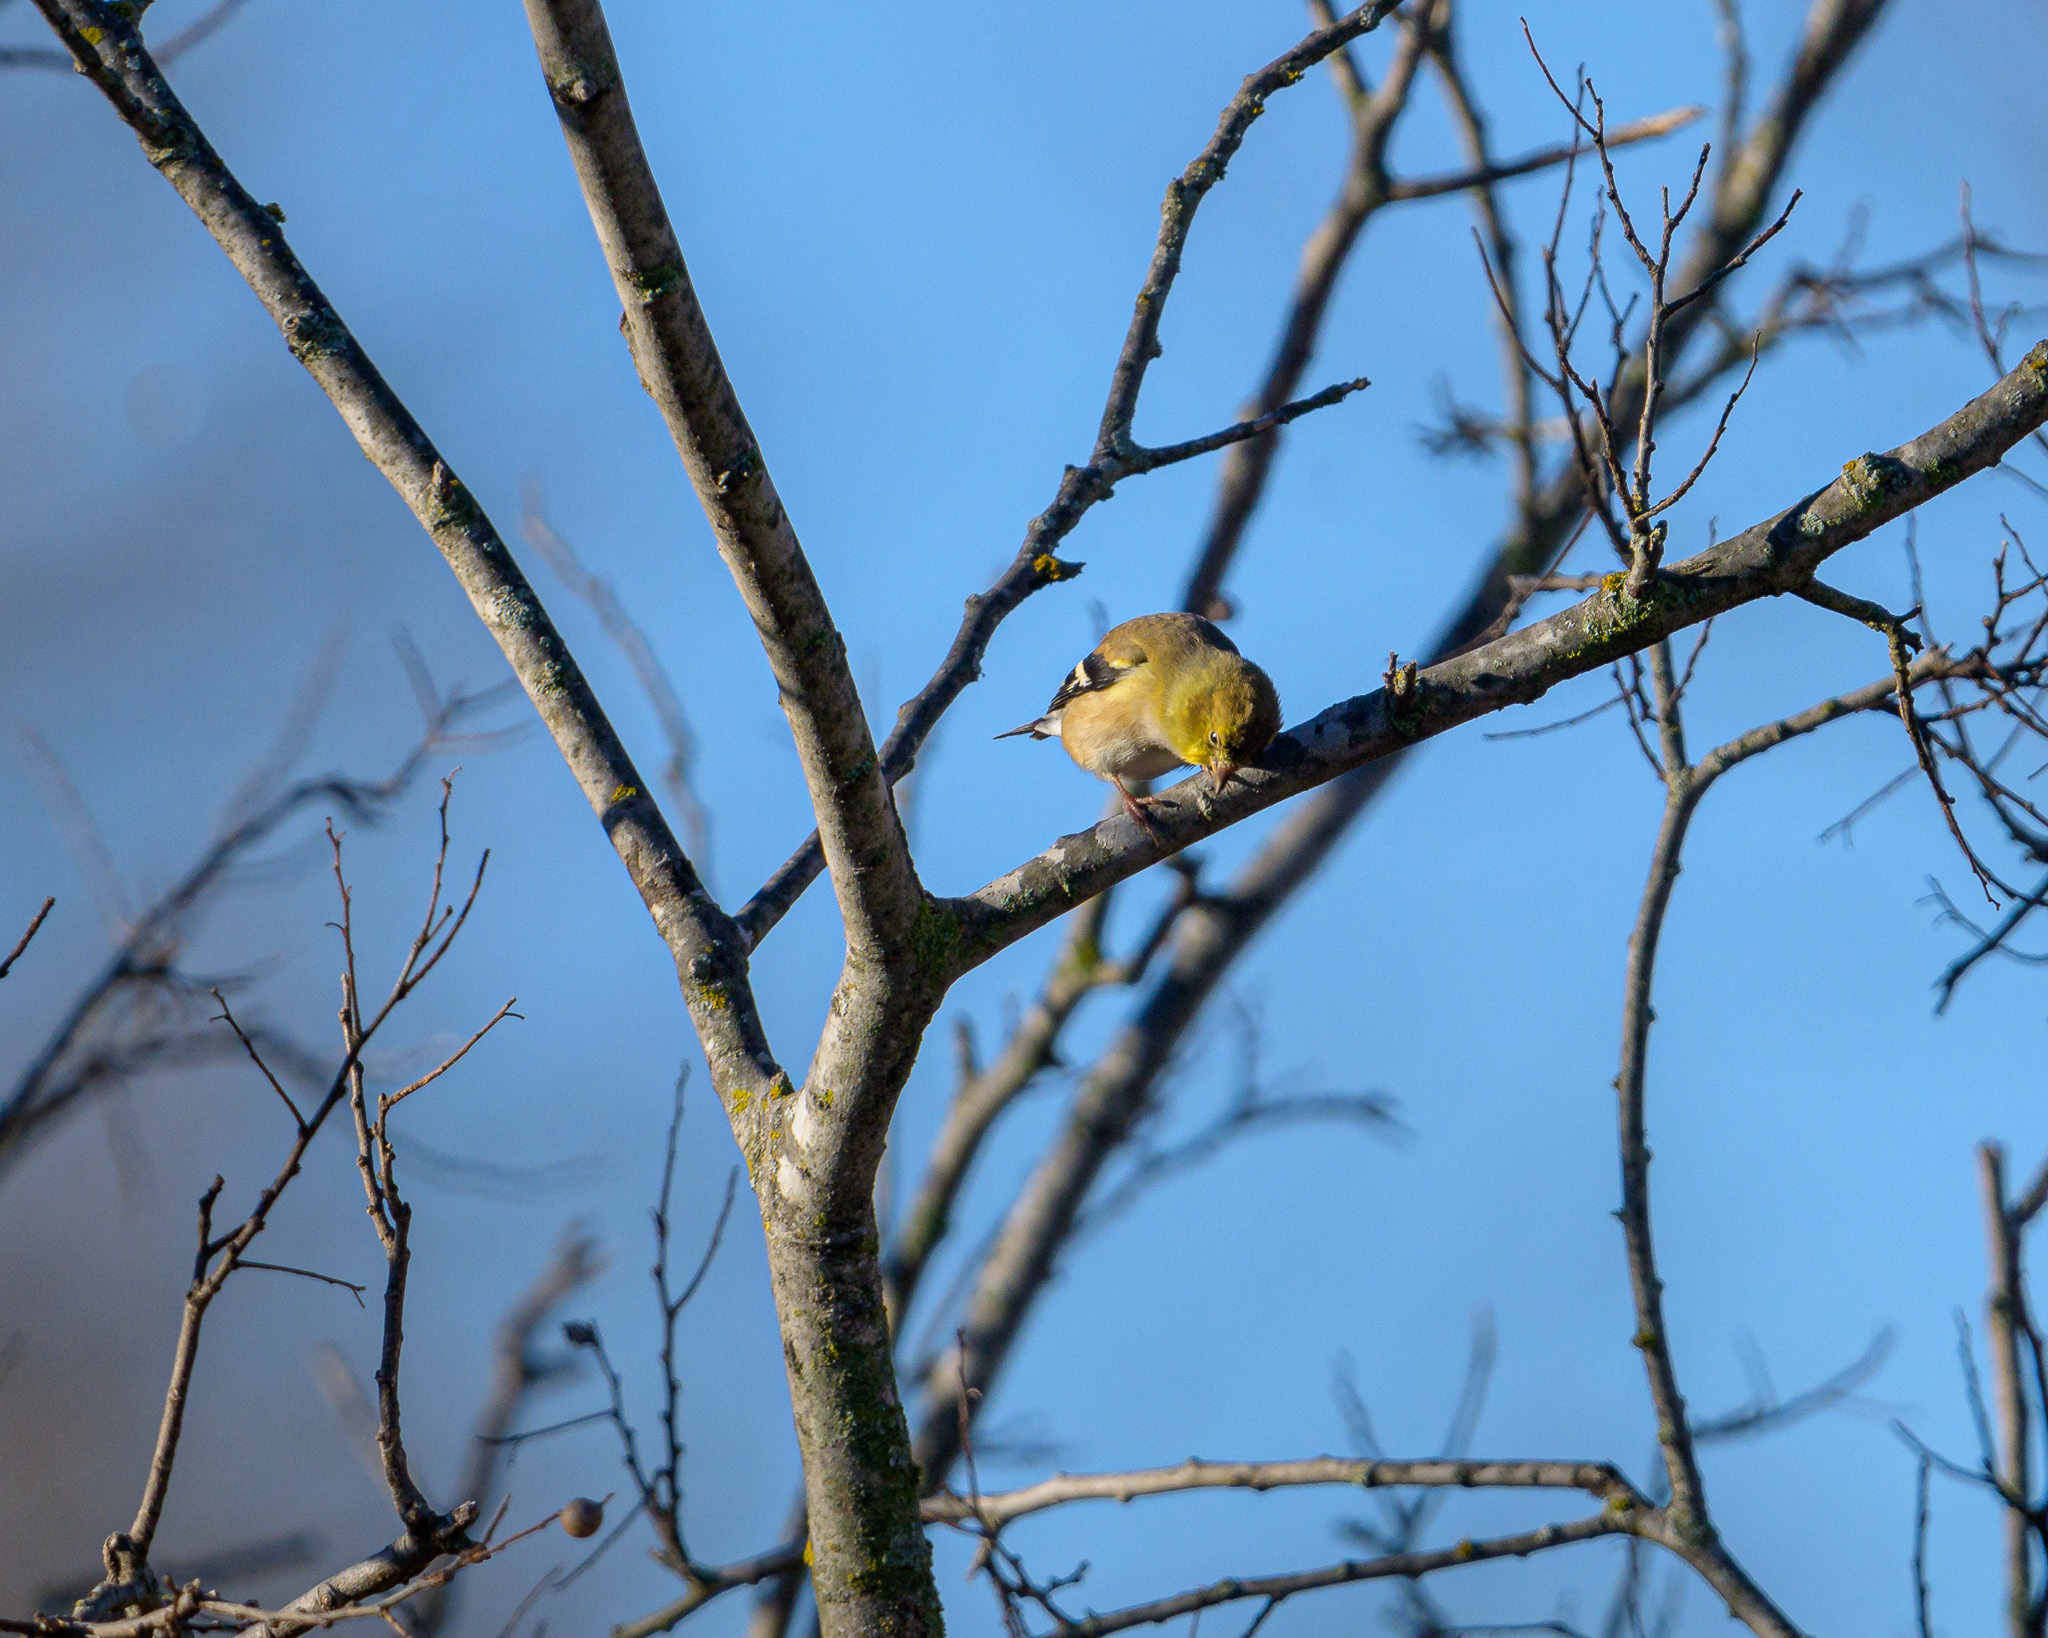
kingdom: Animalia
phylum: Chordata
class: Aves
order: Passeriformes
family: Fringillidae
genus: Spinus
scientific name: Spinus tristis
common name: American goldfinch
